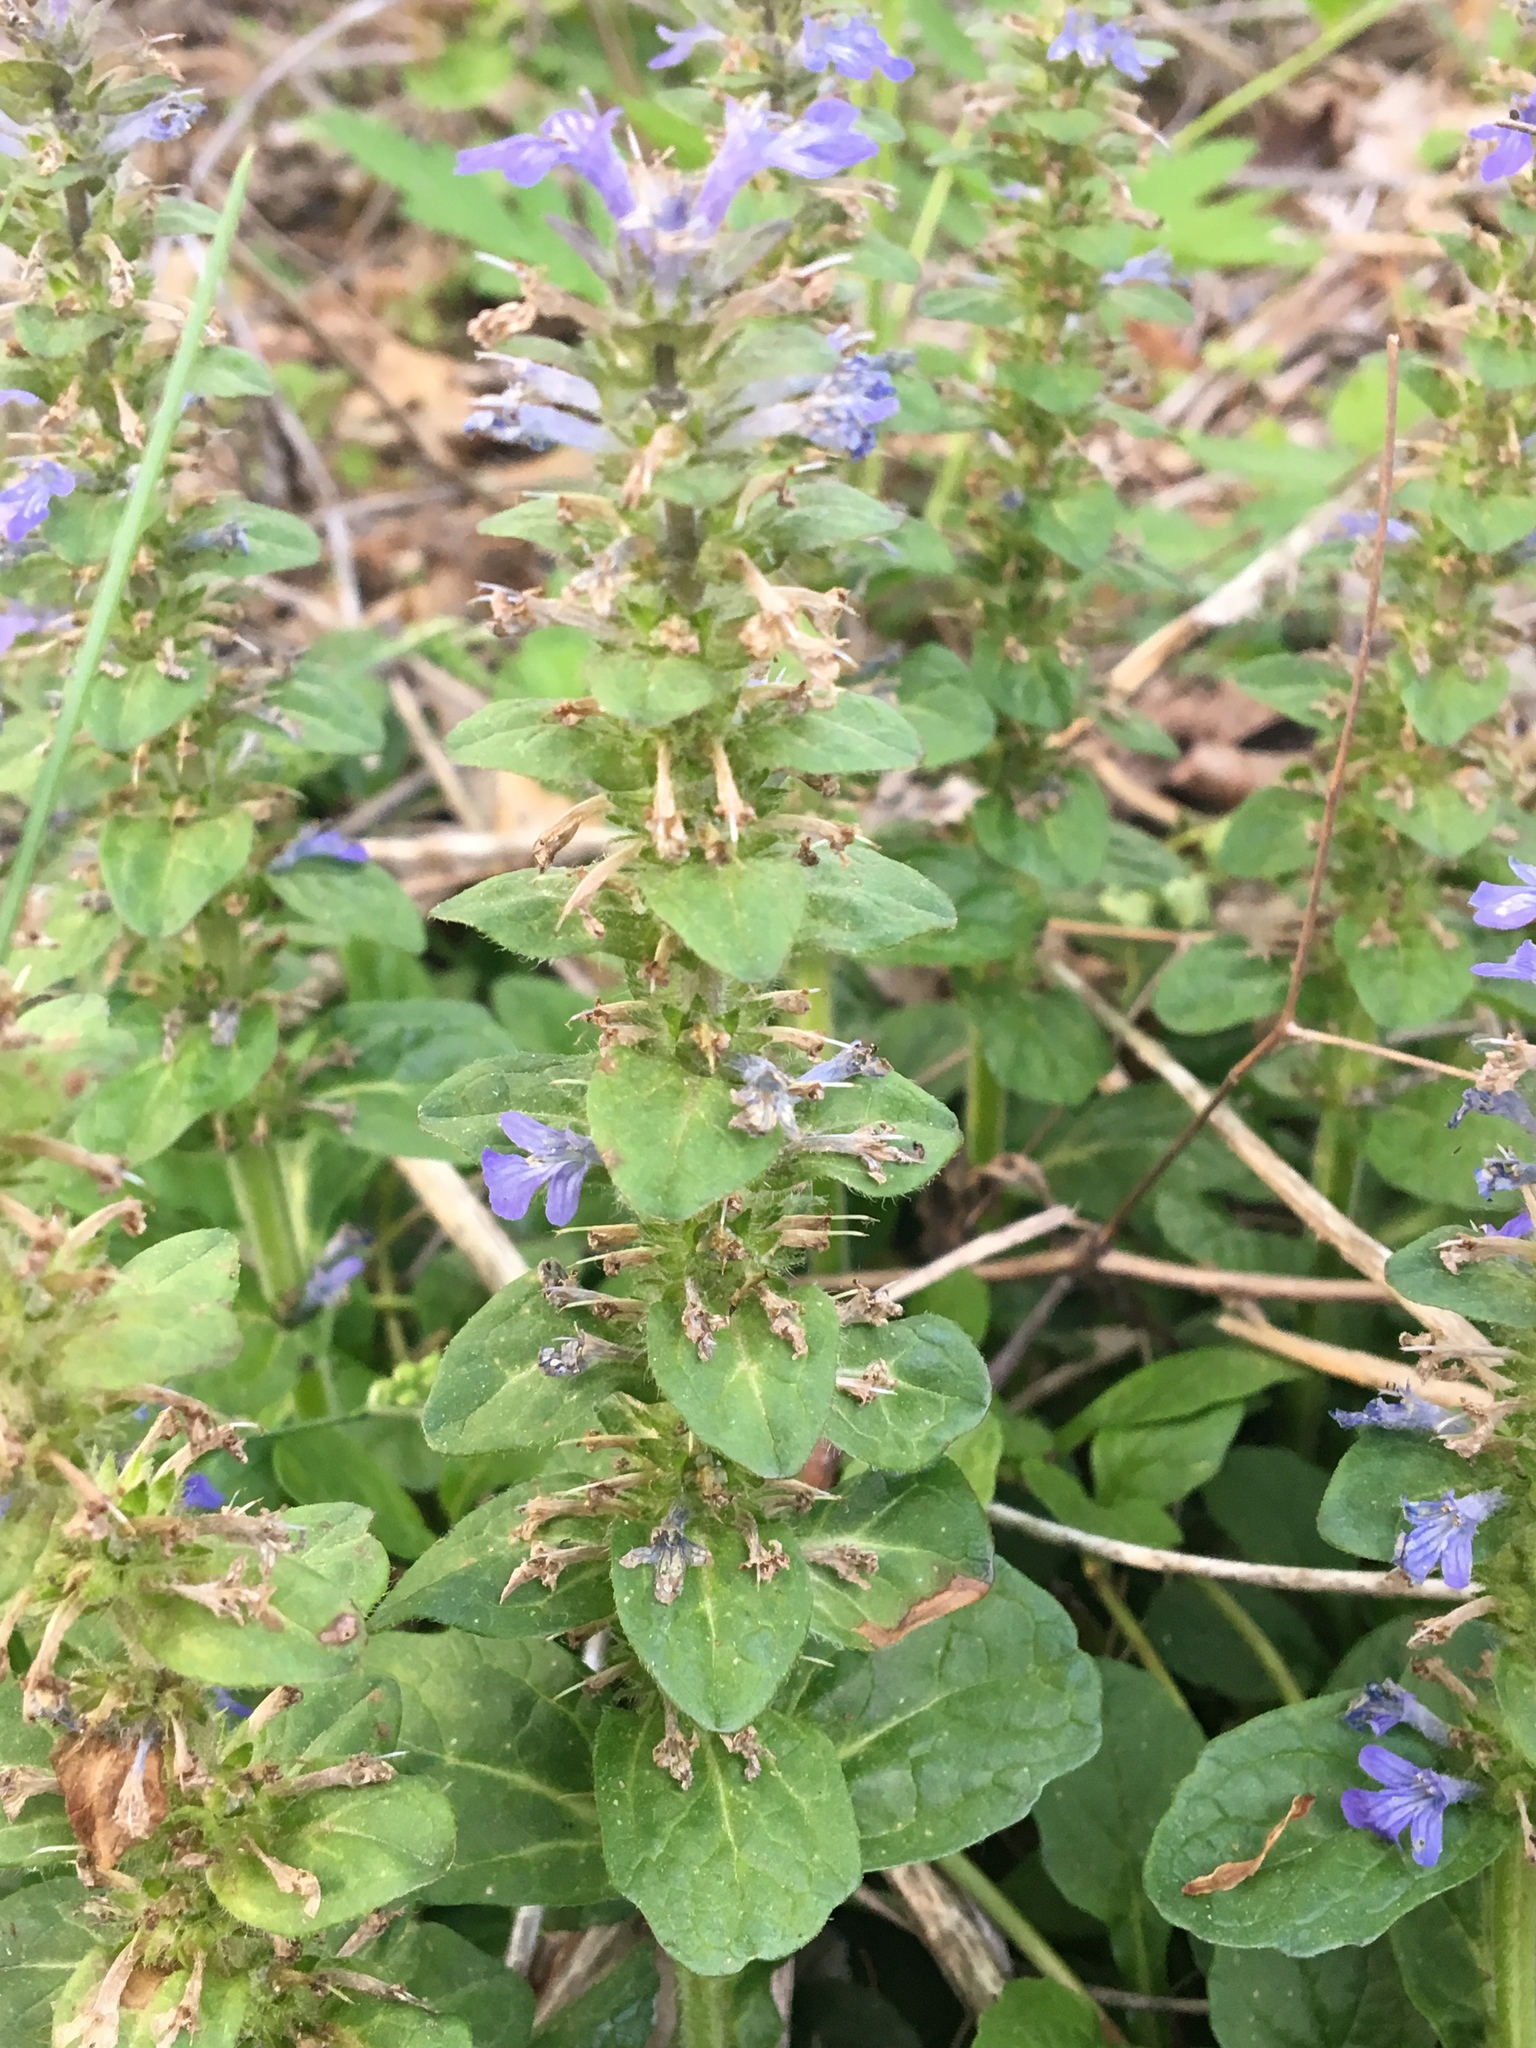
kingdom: Plantae
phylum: Tracheophyta
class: Magnoliopsida
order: Lamiales
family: Lamiaceae
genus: Ajuga
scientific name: Ajuga reptans
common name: Bugle
